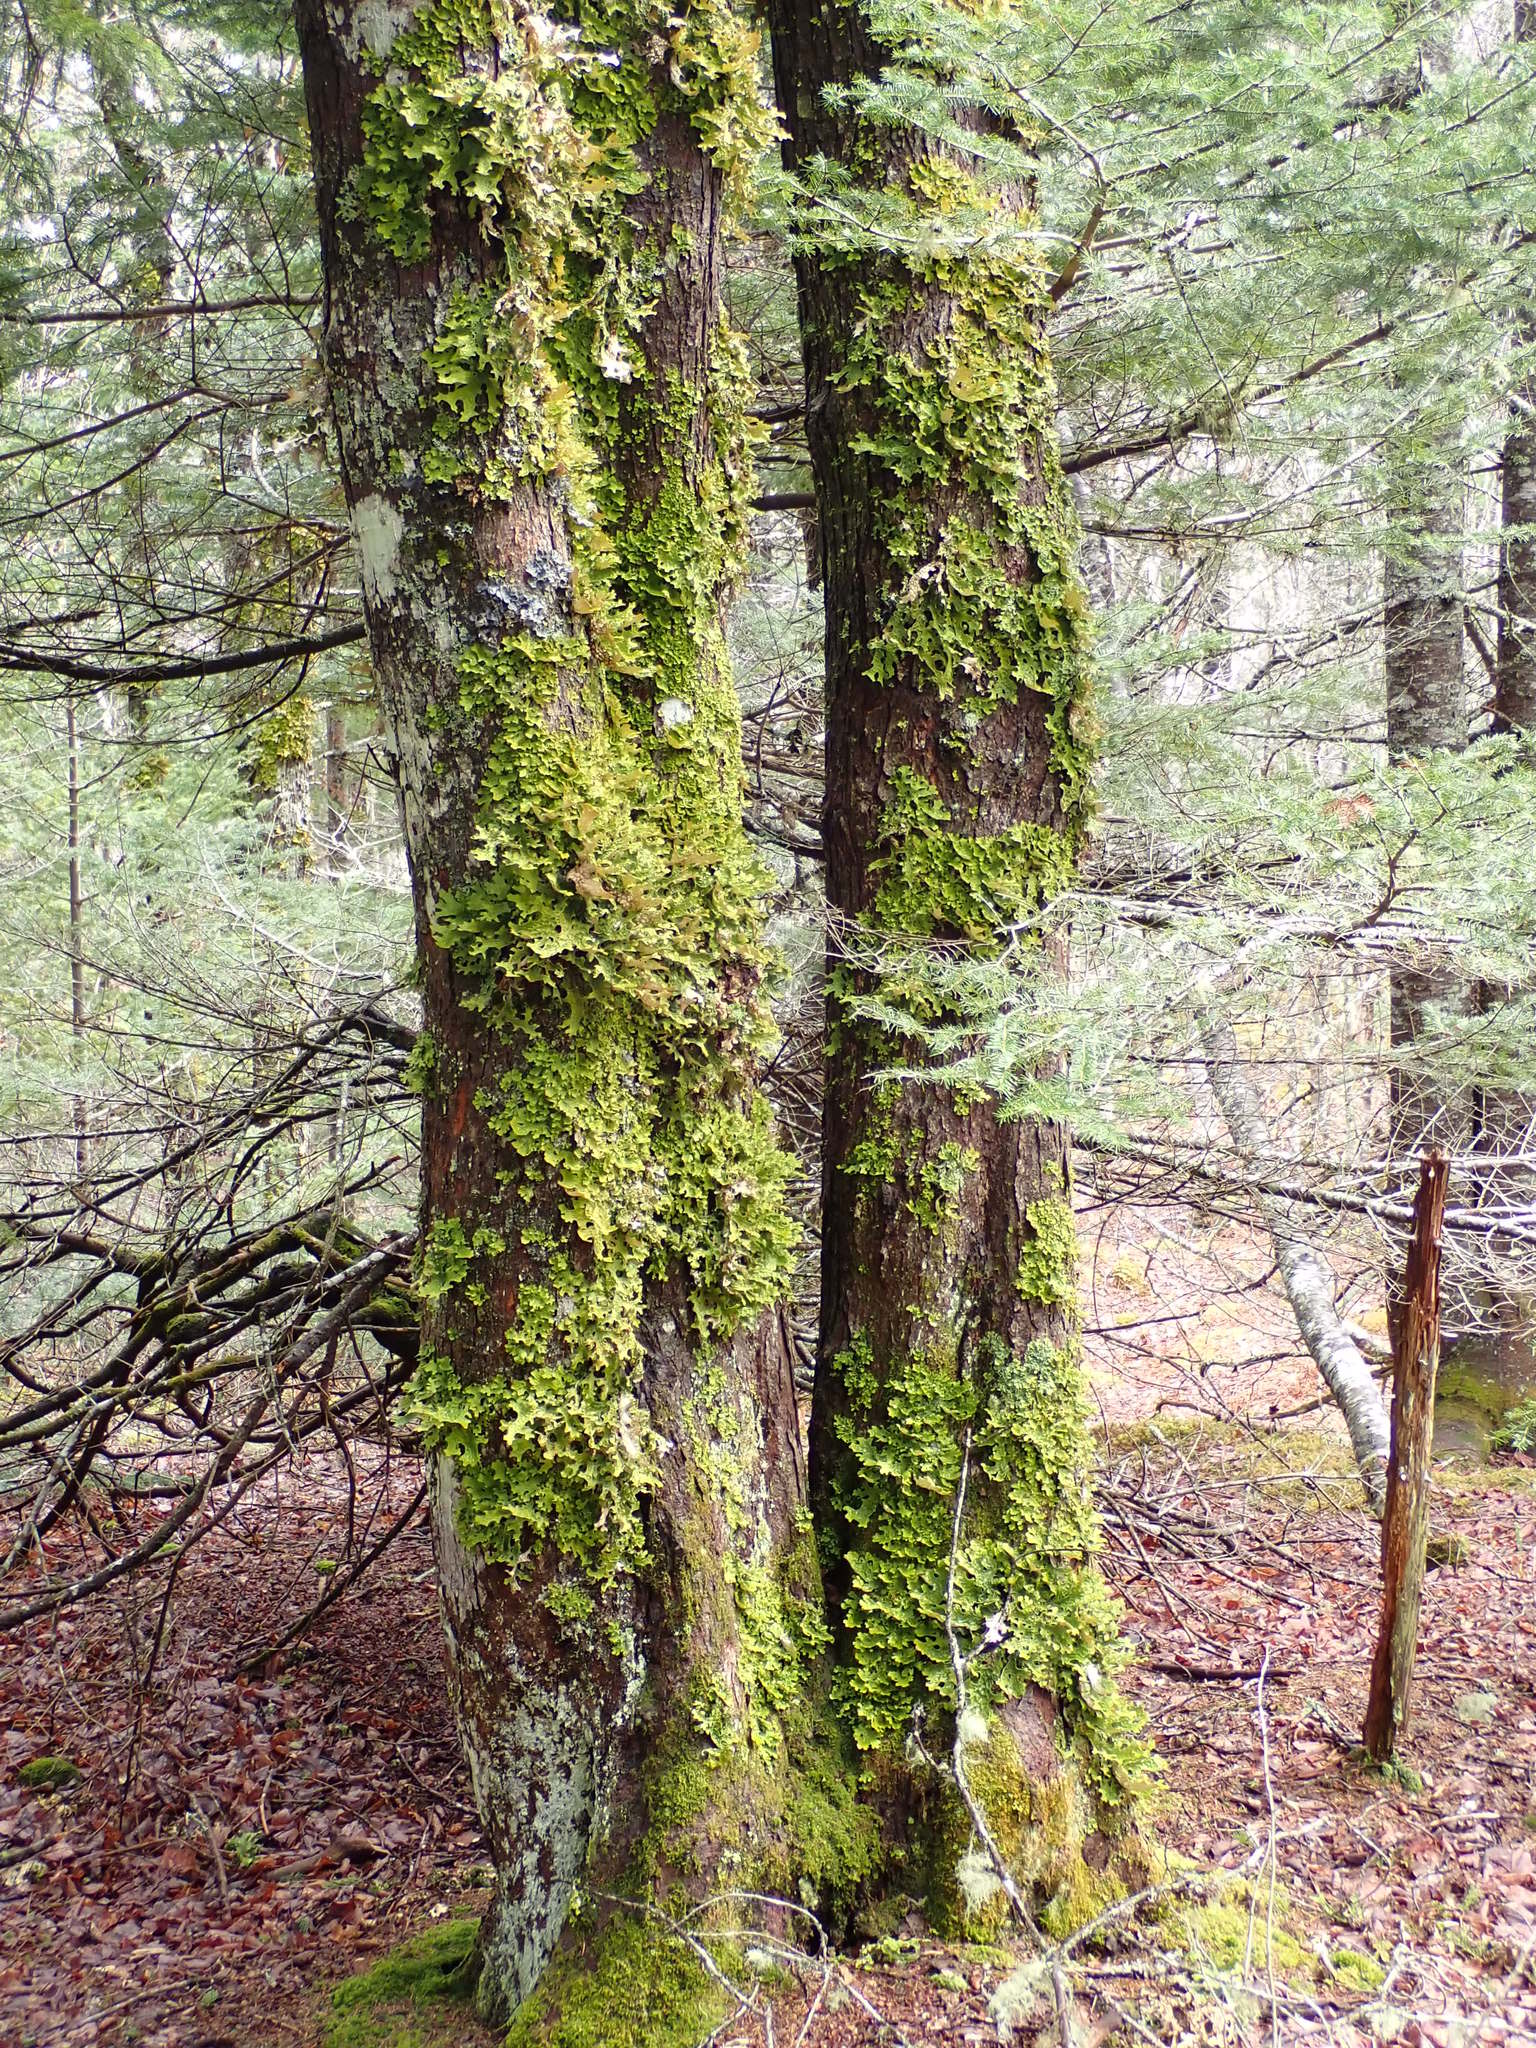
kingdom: Fungi
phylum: Ascomycota
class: Lecanoromycetes
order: Peltigerales
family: Lobariaceae
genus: Lobaria
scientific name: Lobaria pulmonaria
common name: Lungwort
